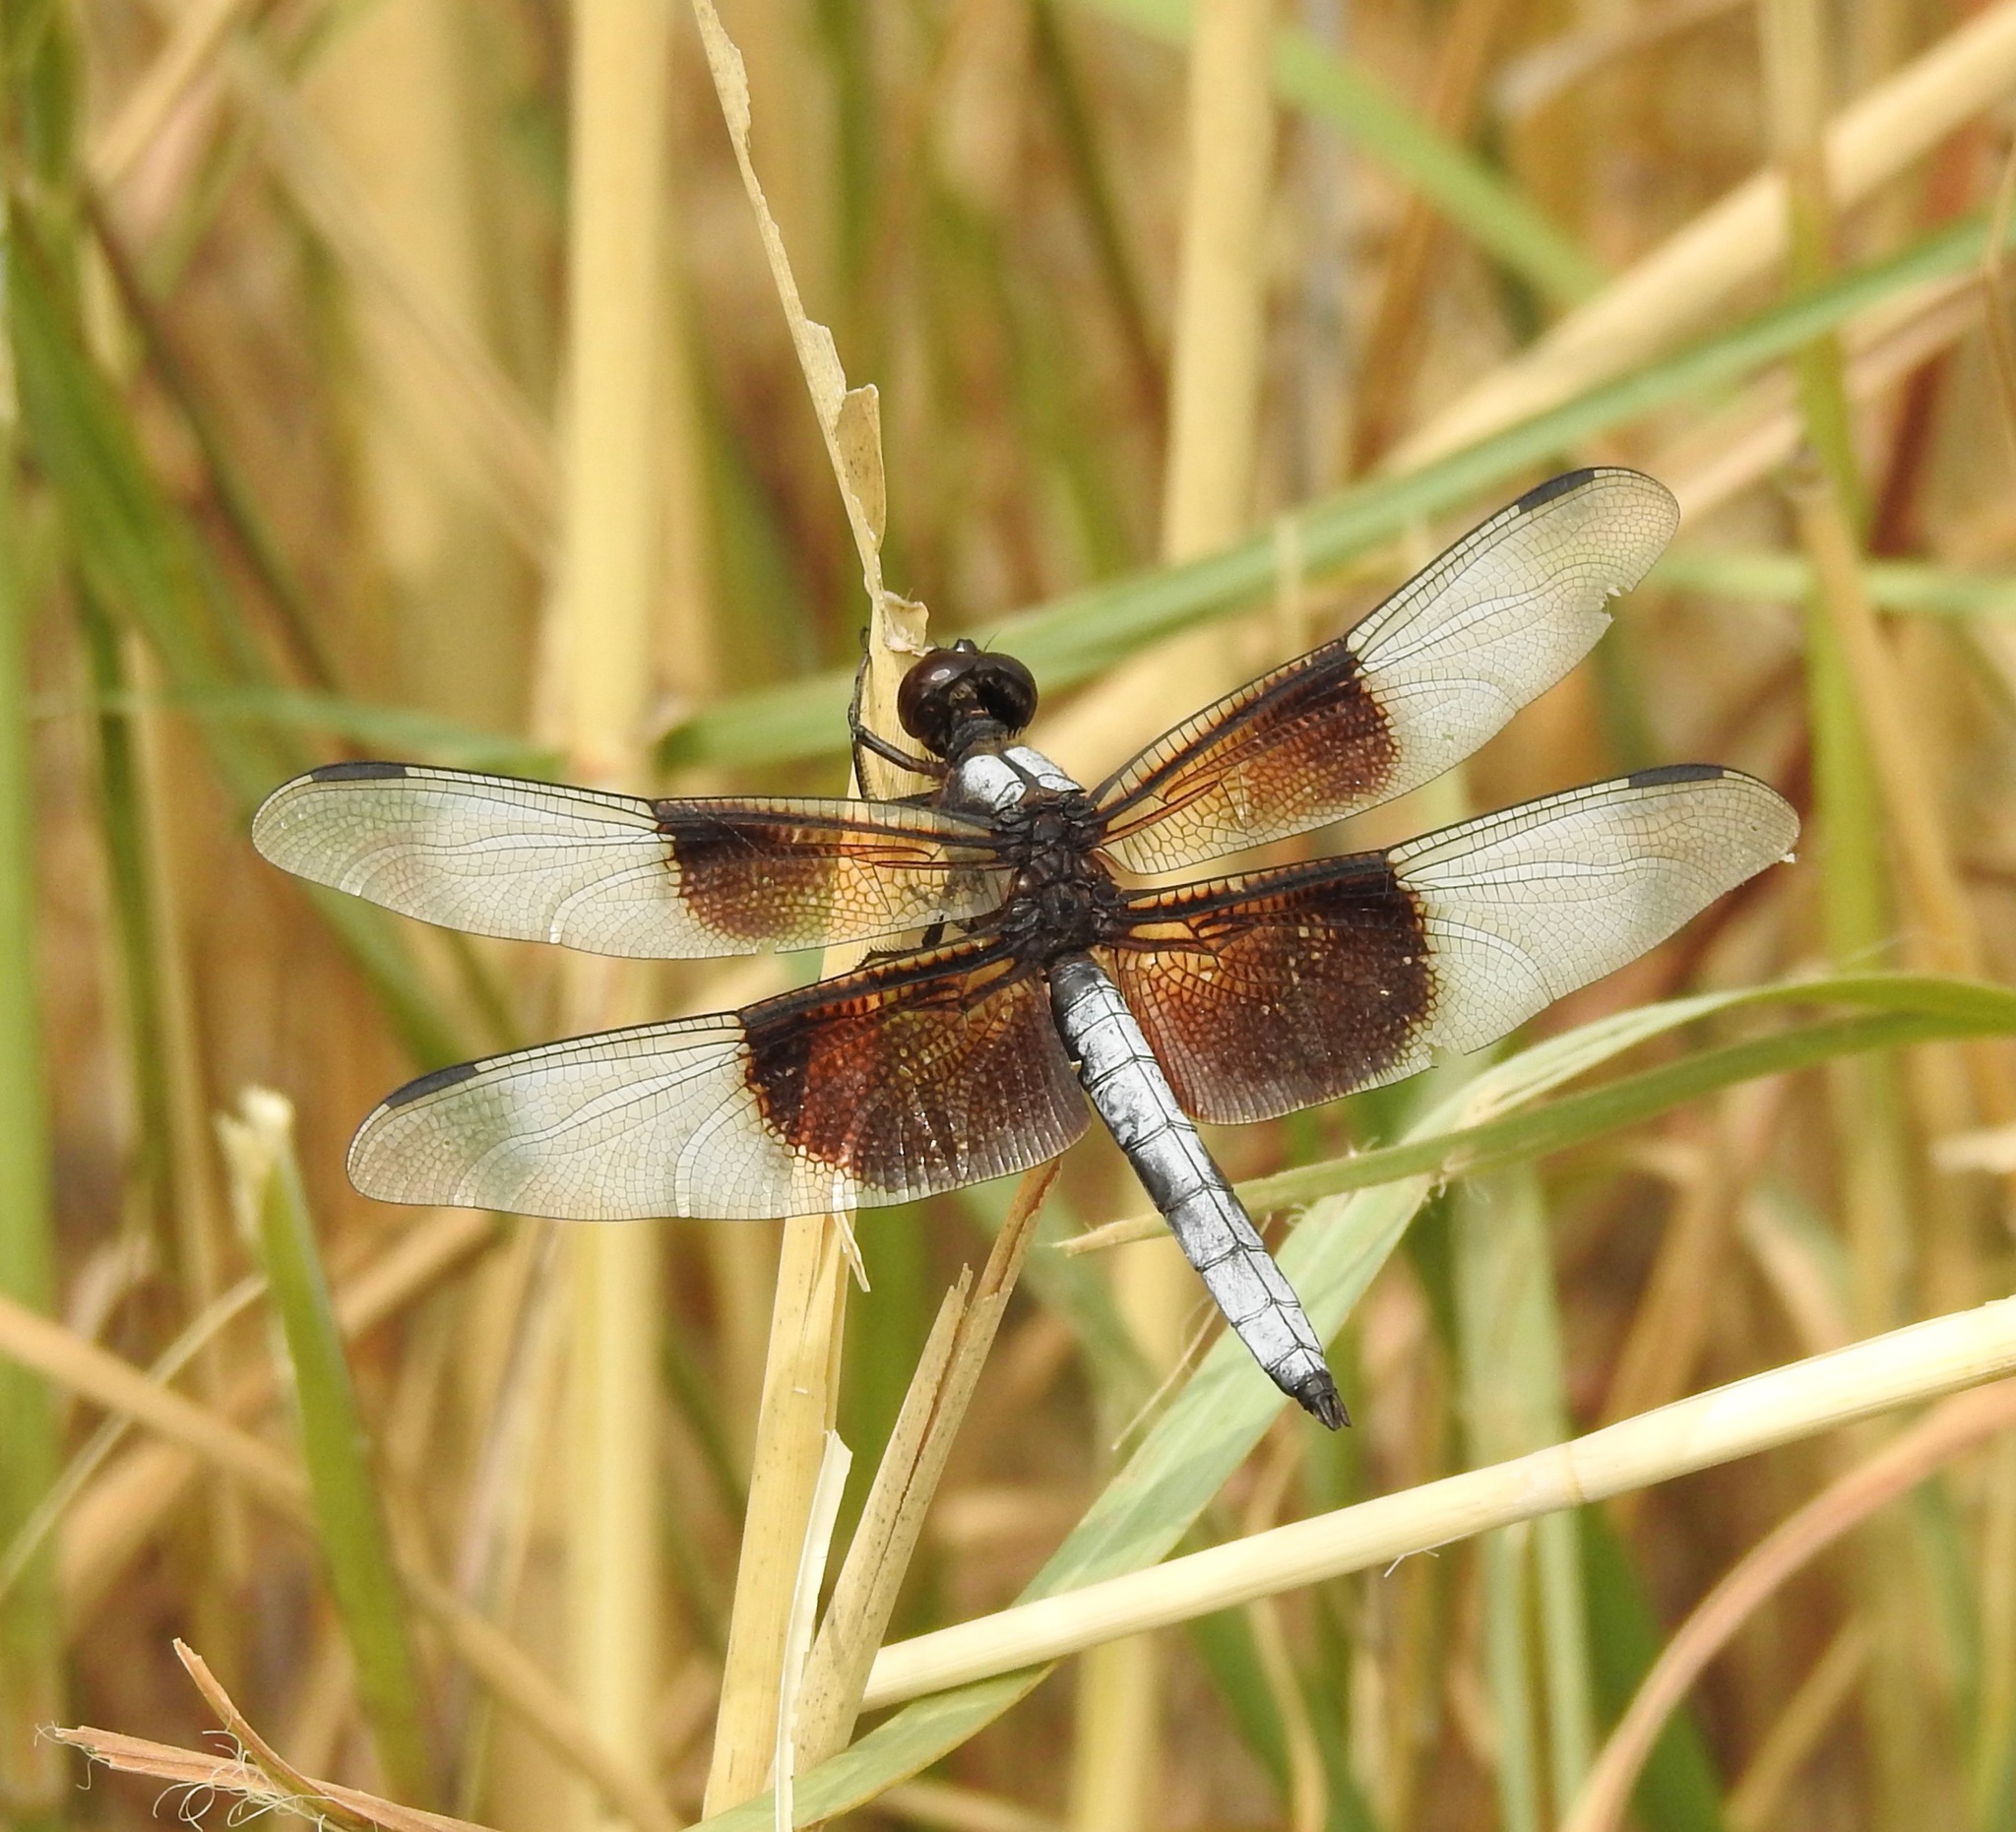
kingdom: Animalia
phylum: Arthropoda
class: Insecta
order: Odonata
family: Libellulidae
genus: Libellula
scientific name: Libellula luctuosa
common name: Widow skimmer
